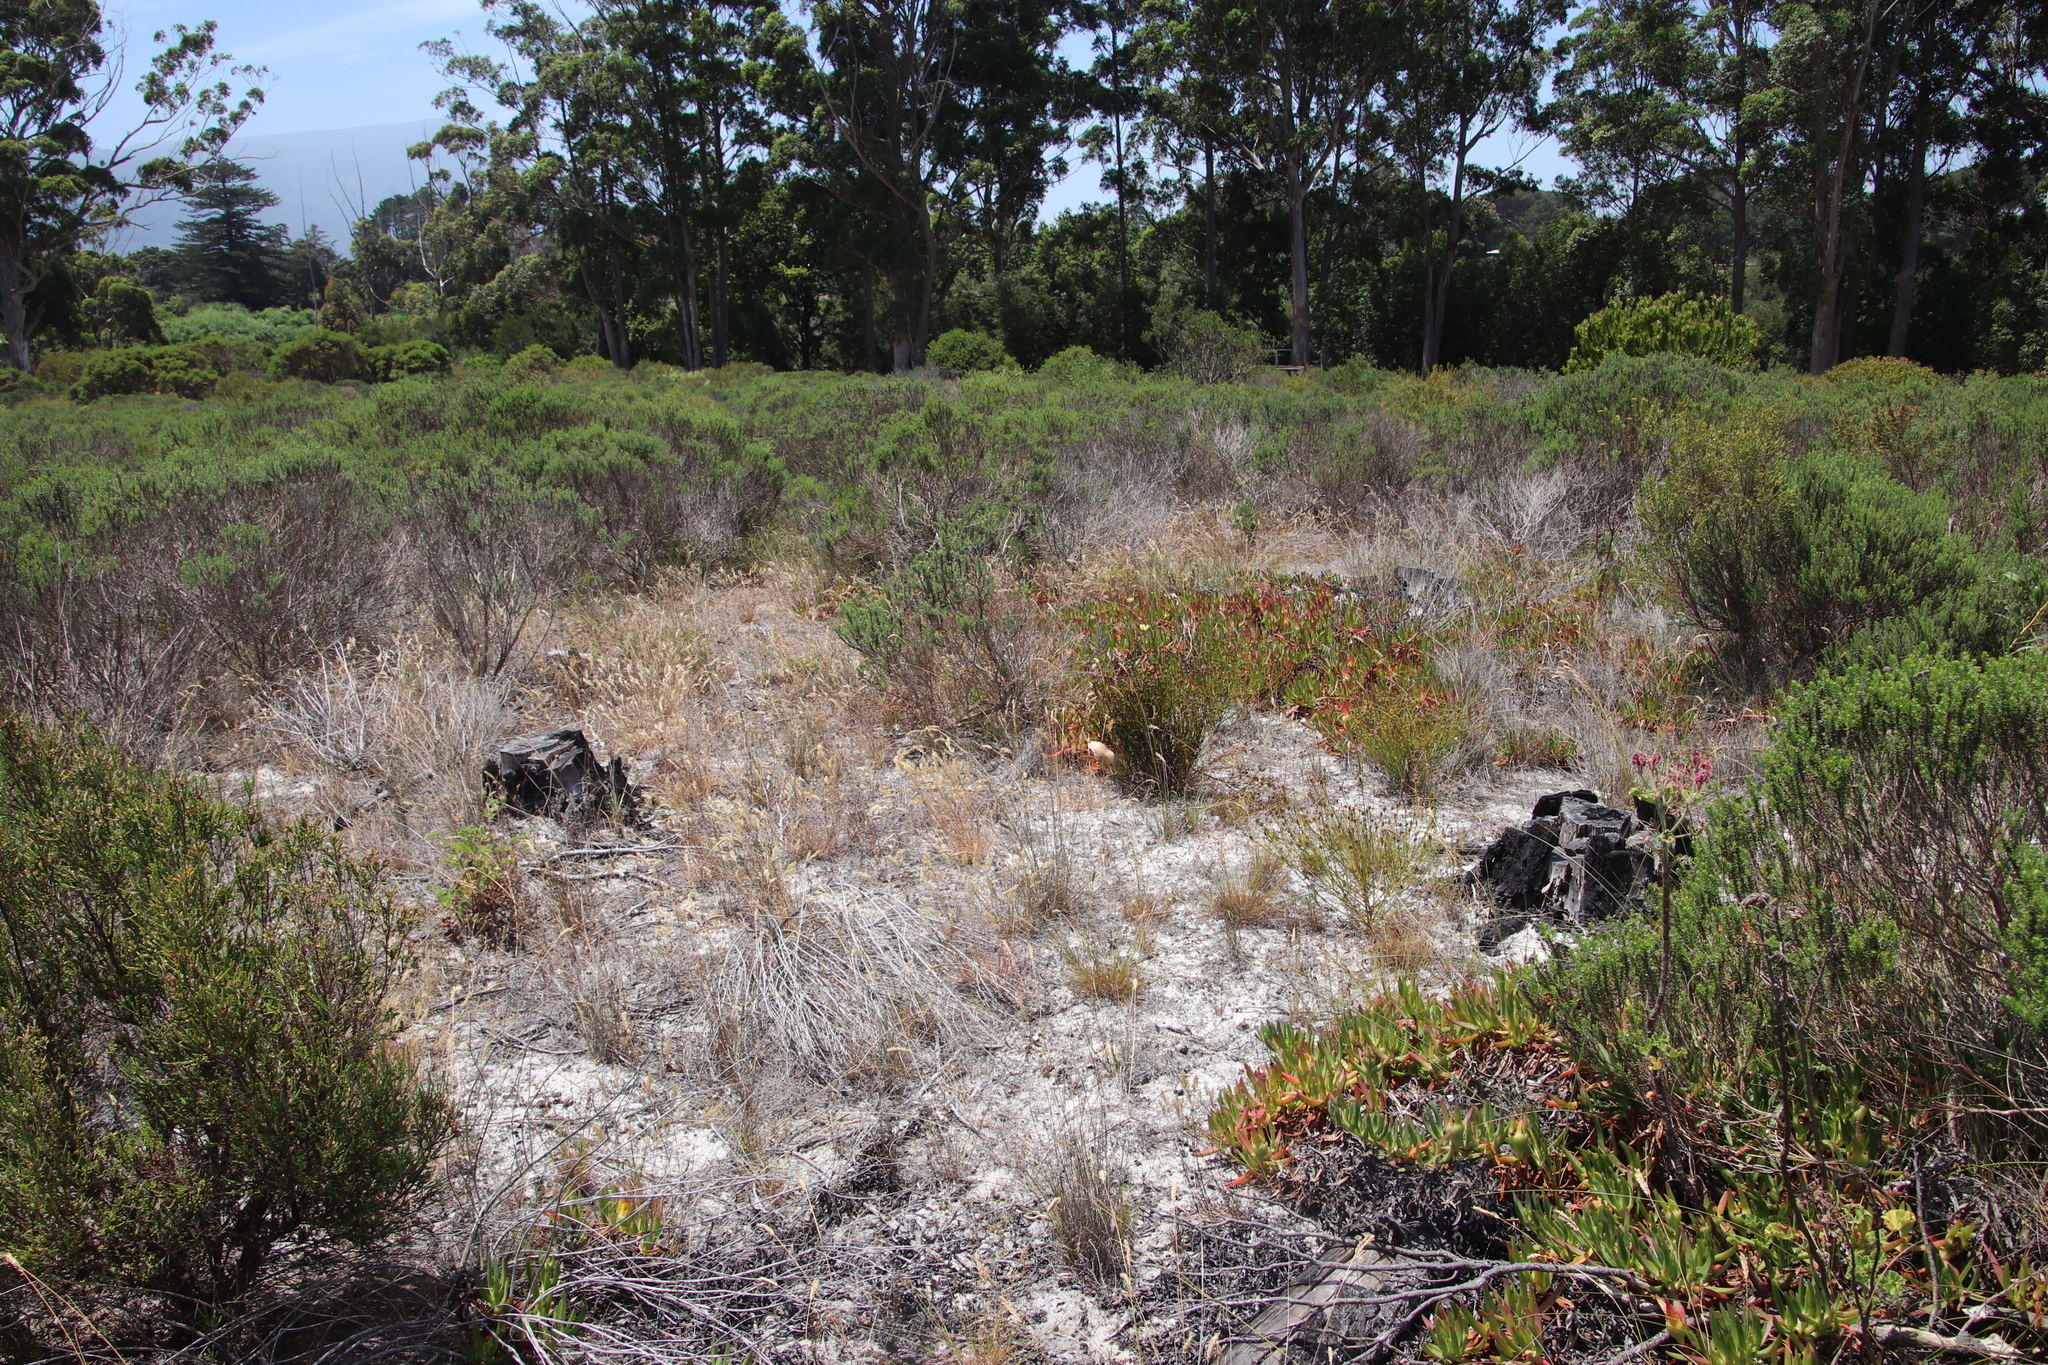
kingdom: Plantae
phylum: Tracheophyta
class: Liliopsida
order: Poales
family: Poaceae
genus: Pentameris
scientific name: Pentameris pallida
